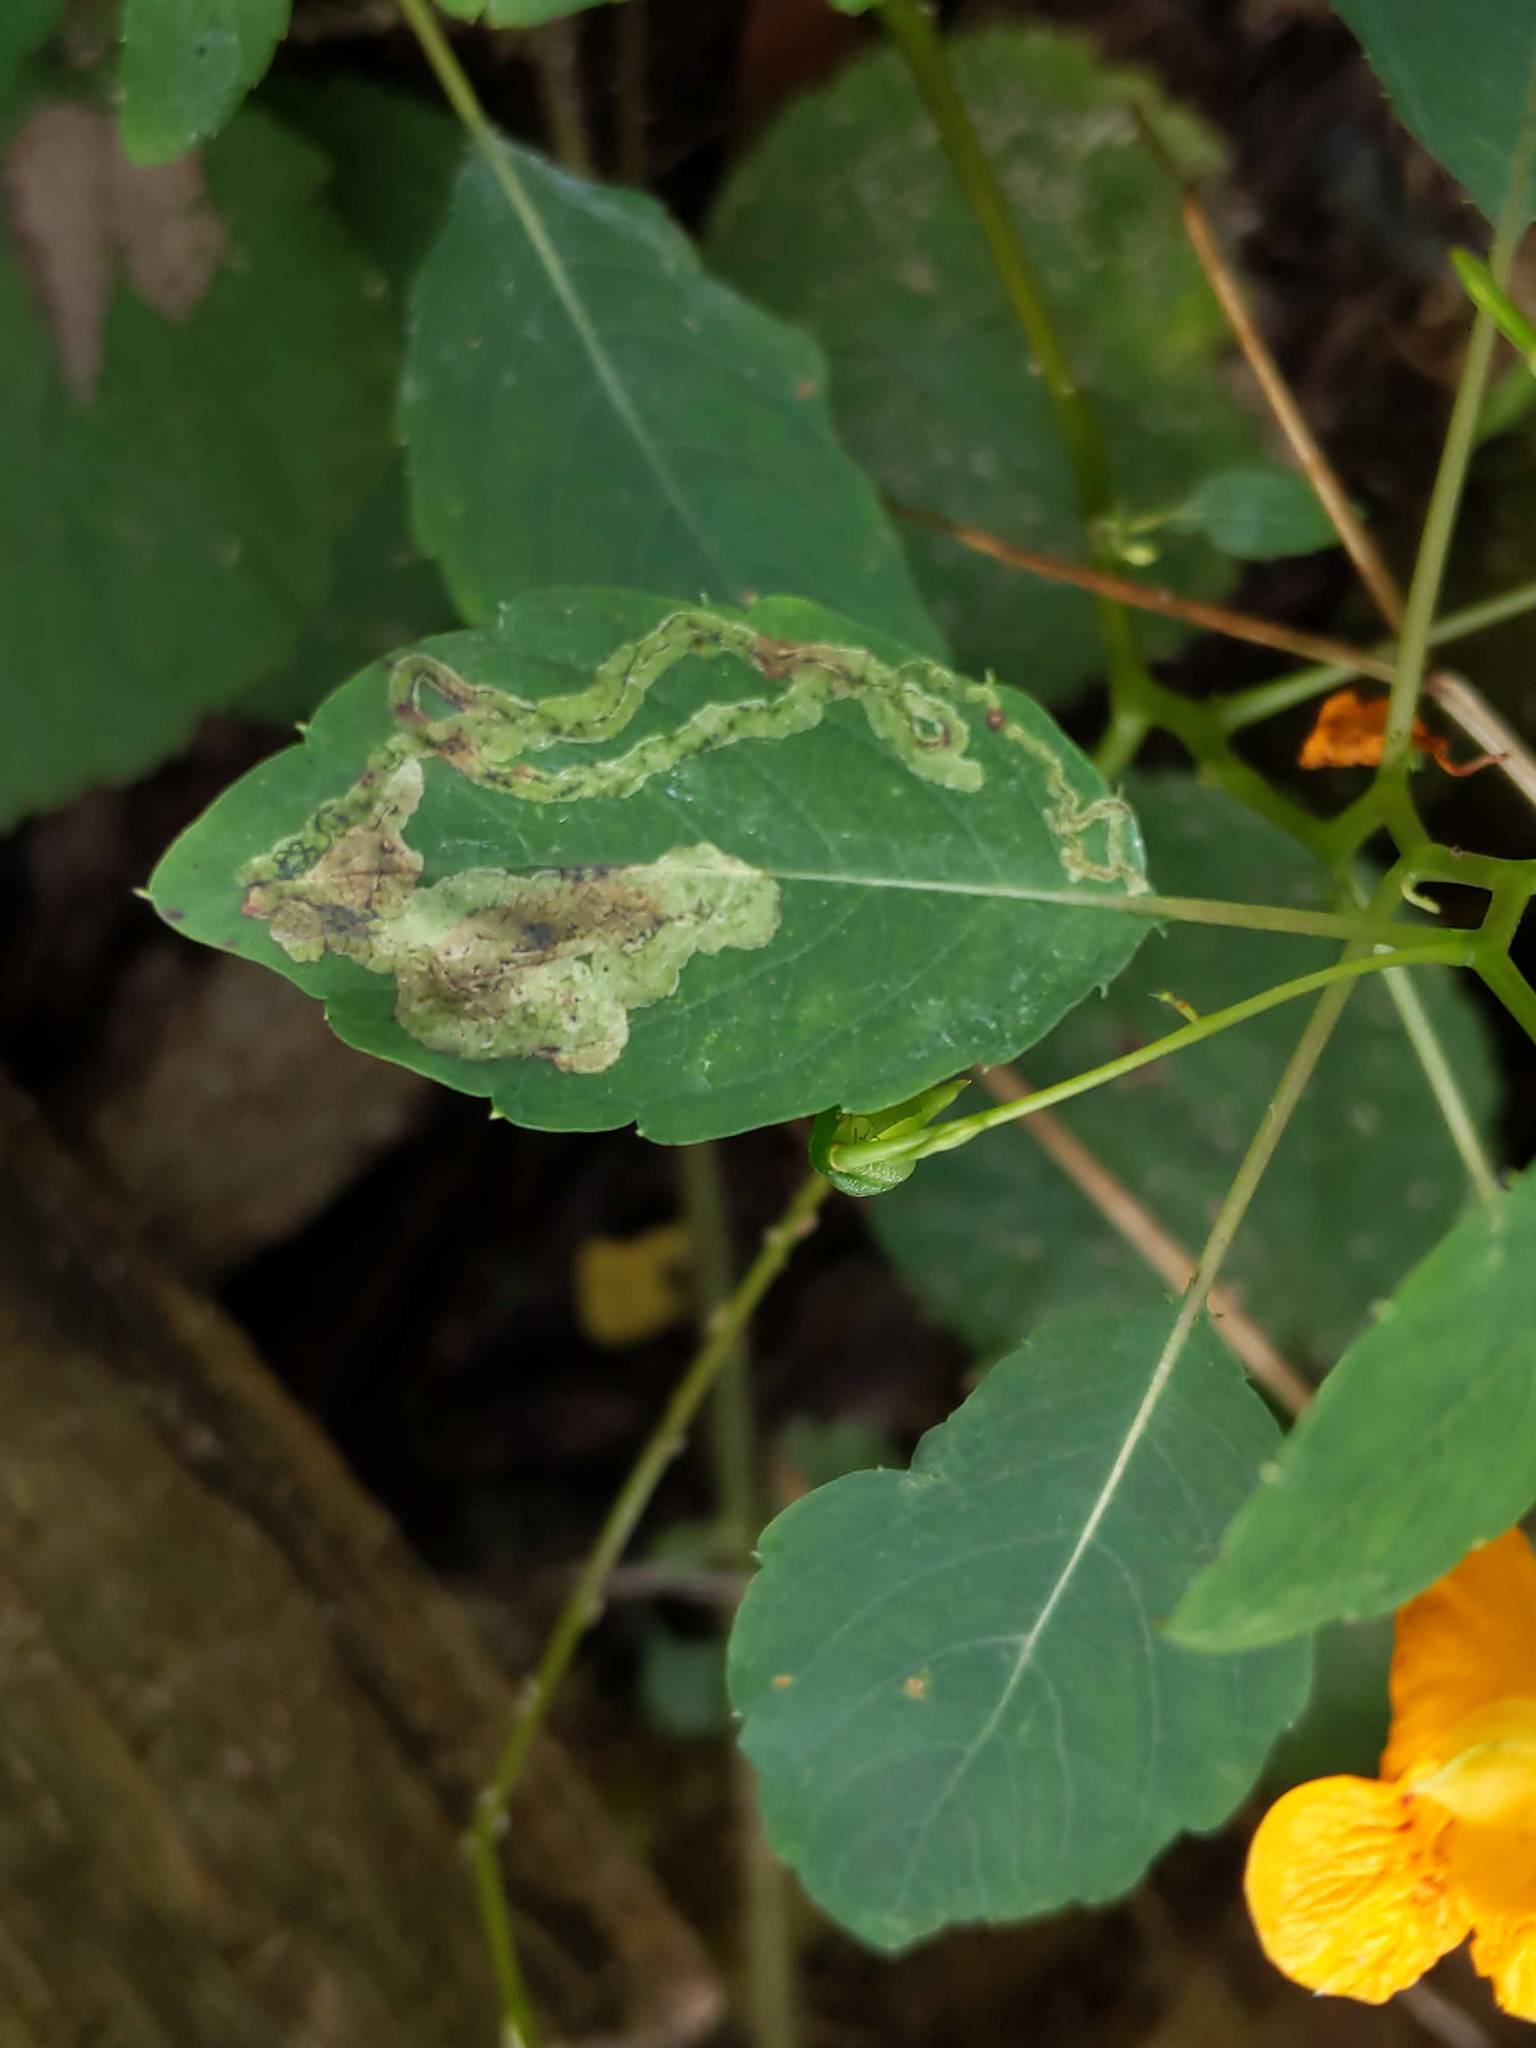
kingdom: Animalia
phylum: Arthropoda
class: Insecta
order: Diptera
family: Agromyzidae
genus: Phytoliriomyza
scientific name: Phytoliriomyza melampyga
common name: Jewelweed leaf-miner fly
